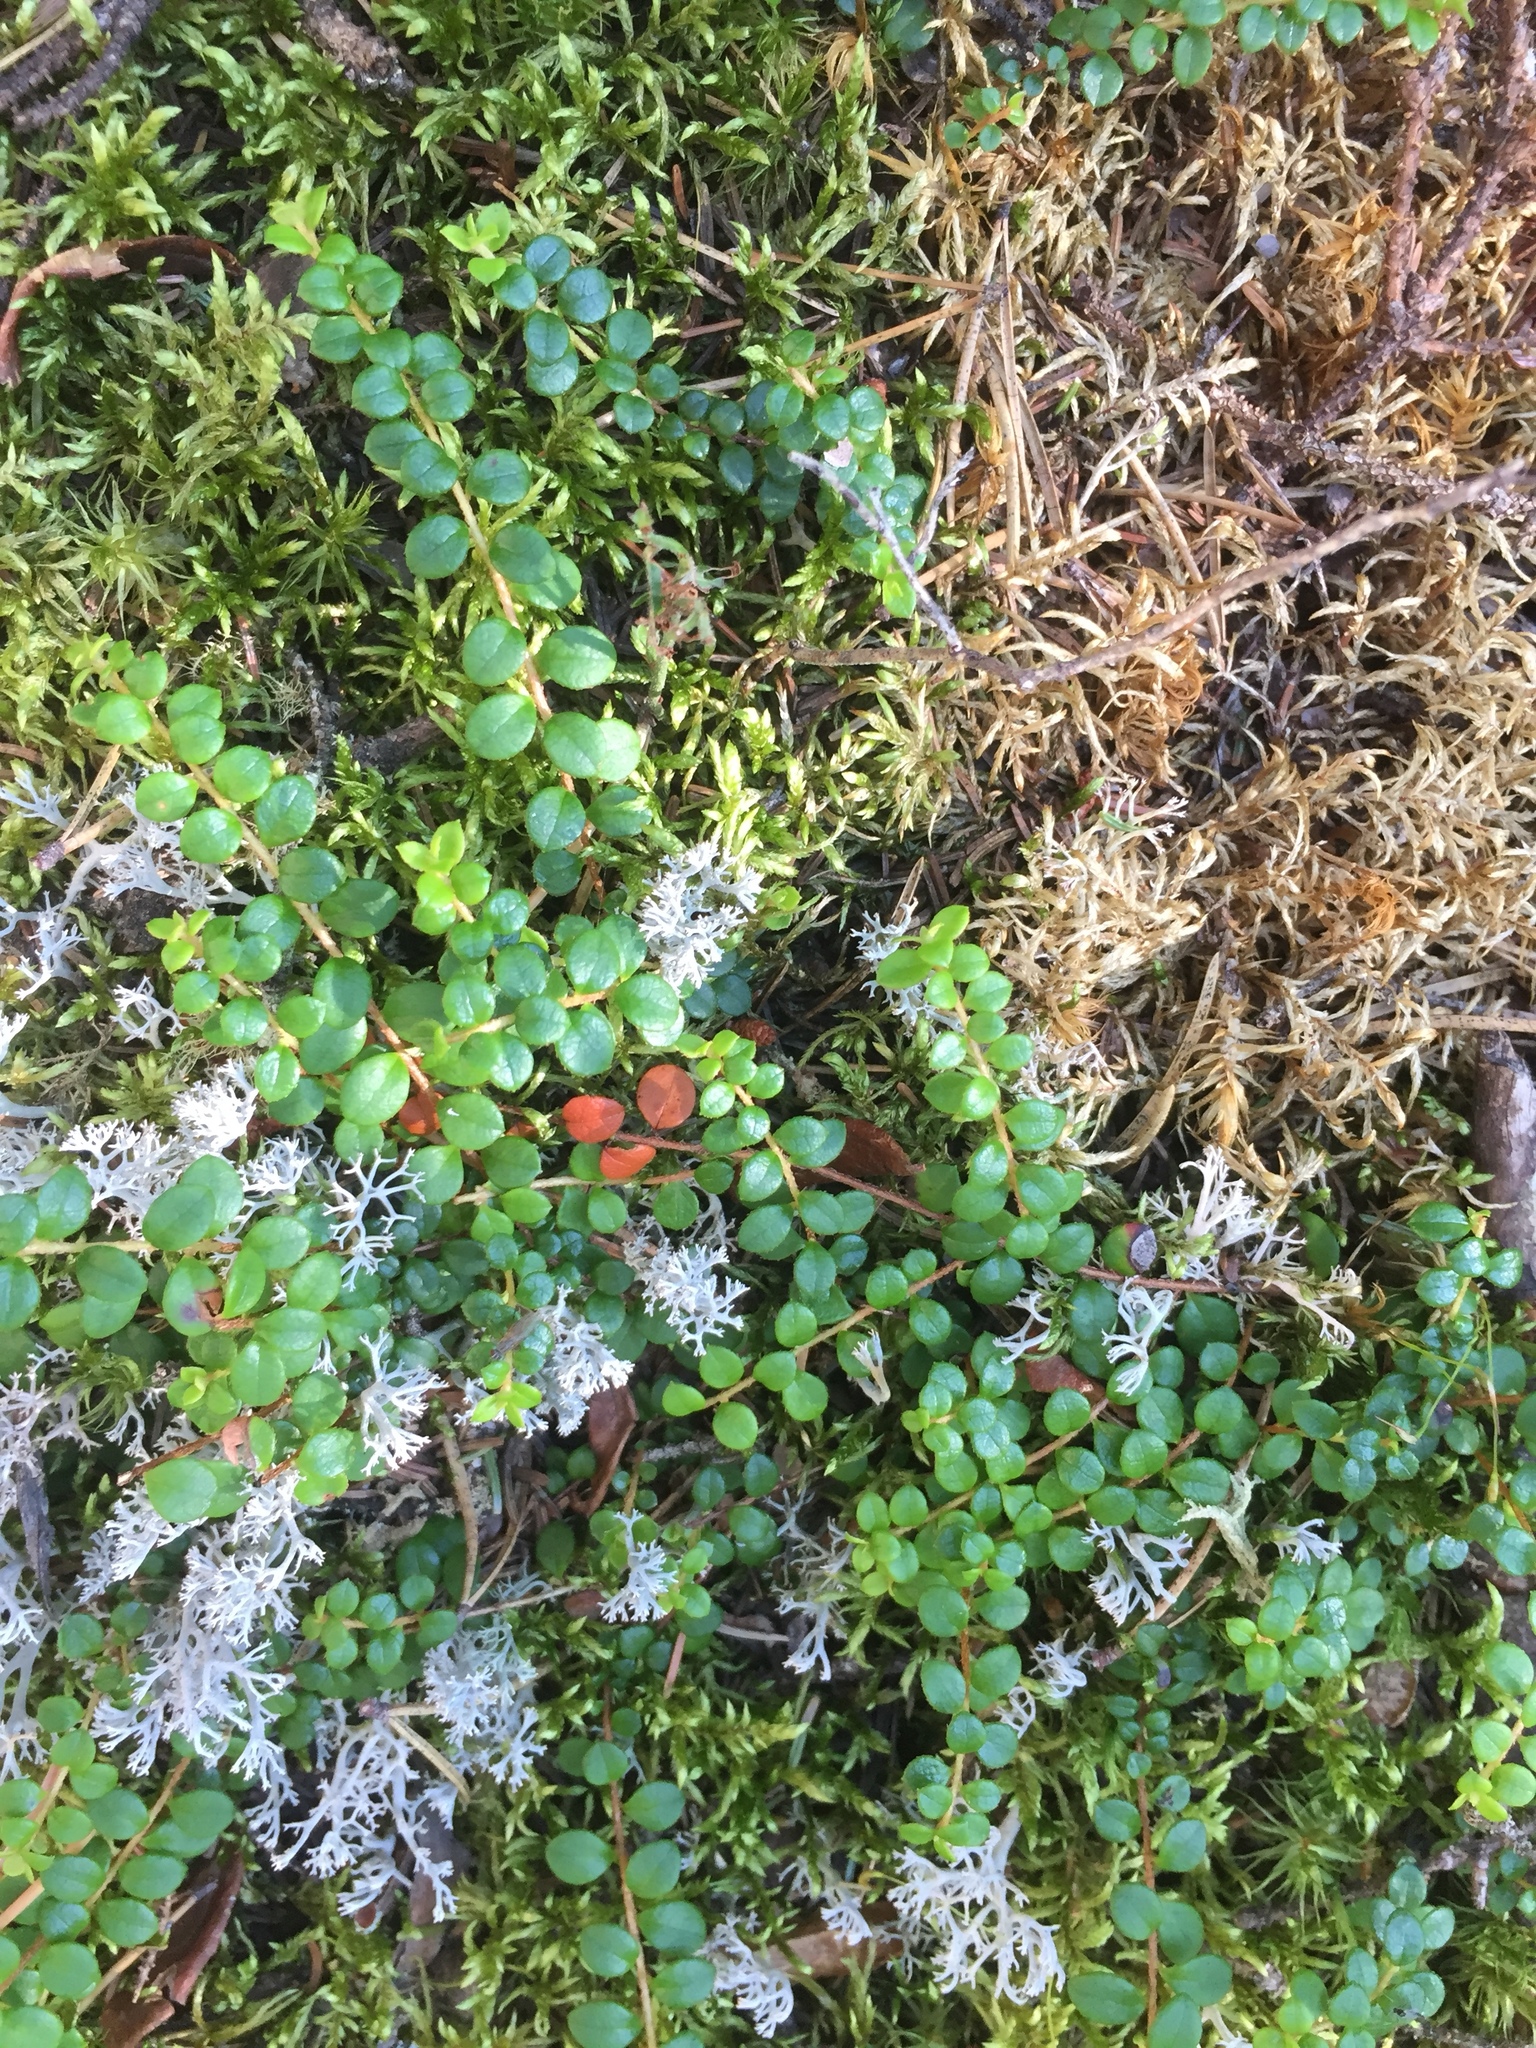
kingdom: Plantae
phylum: Tracheophyta
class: Magnoliopsida
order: Ericales
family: Ericaceae
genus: Gaultheria
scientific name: Gaultheria hispidula
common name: Cancer wintergreen
